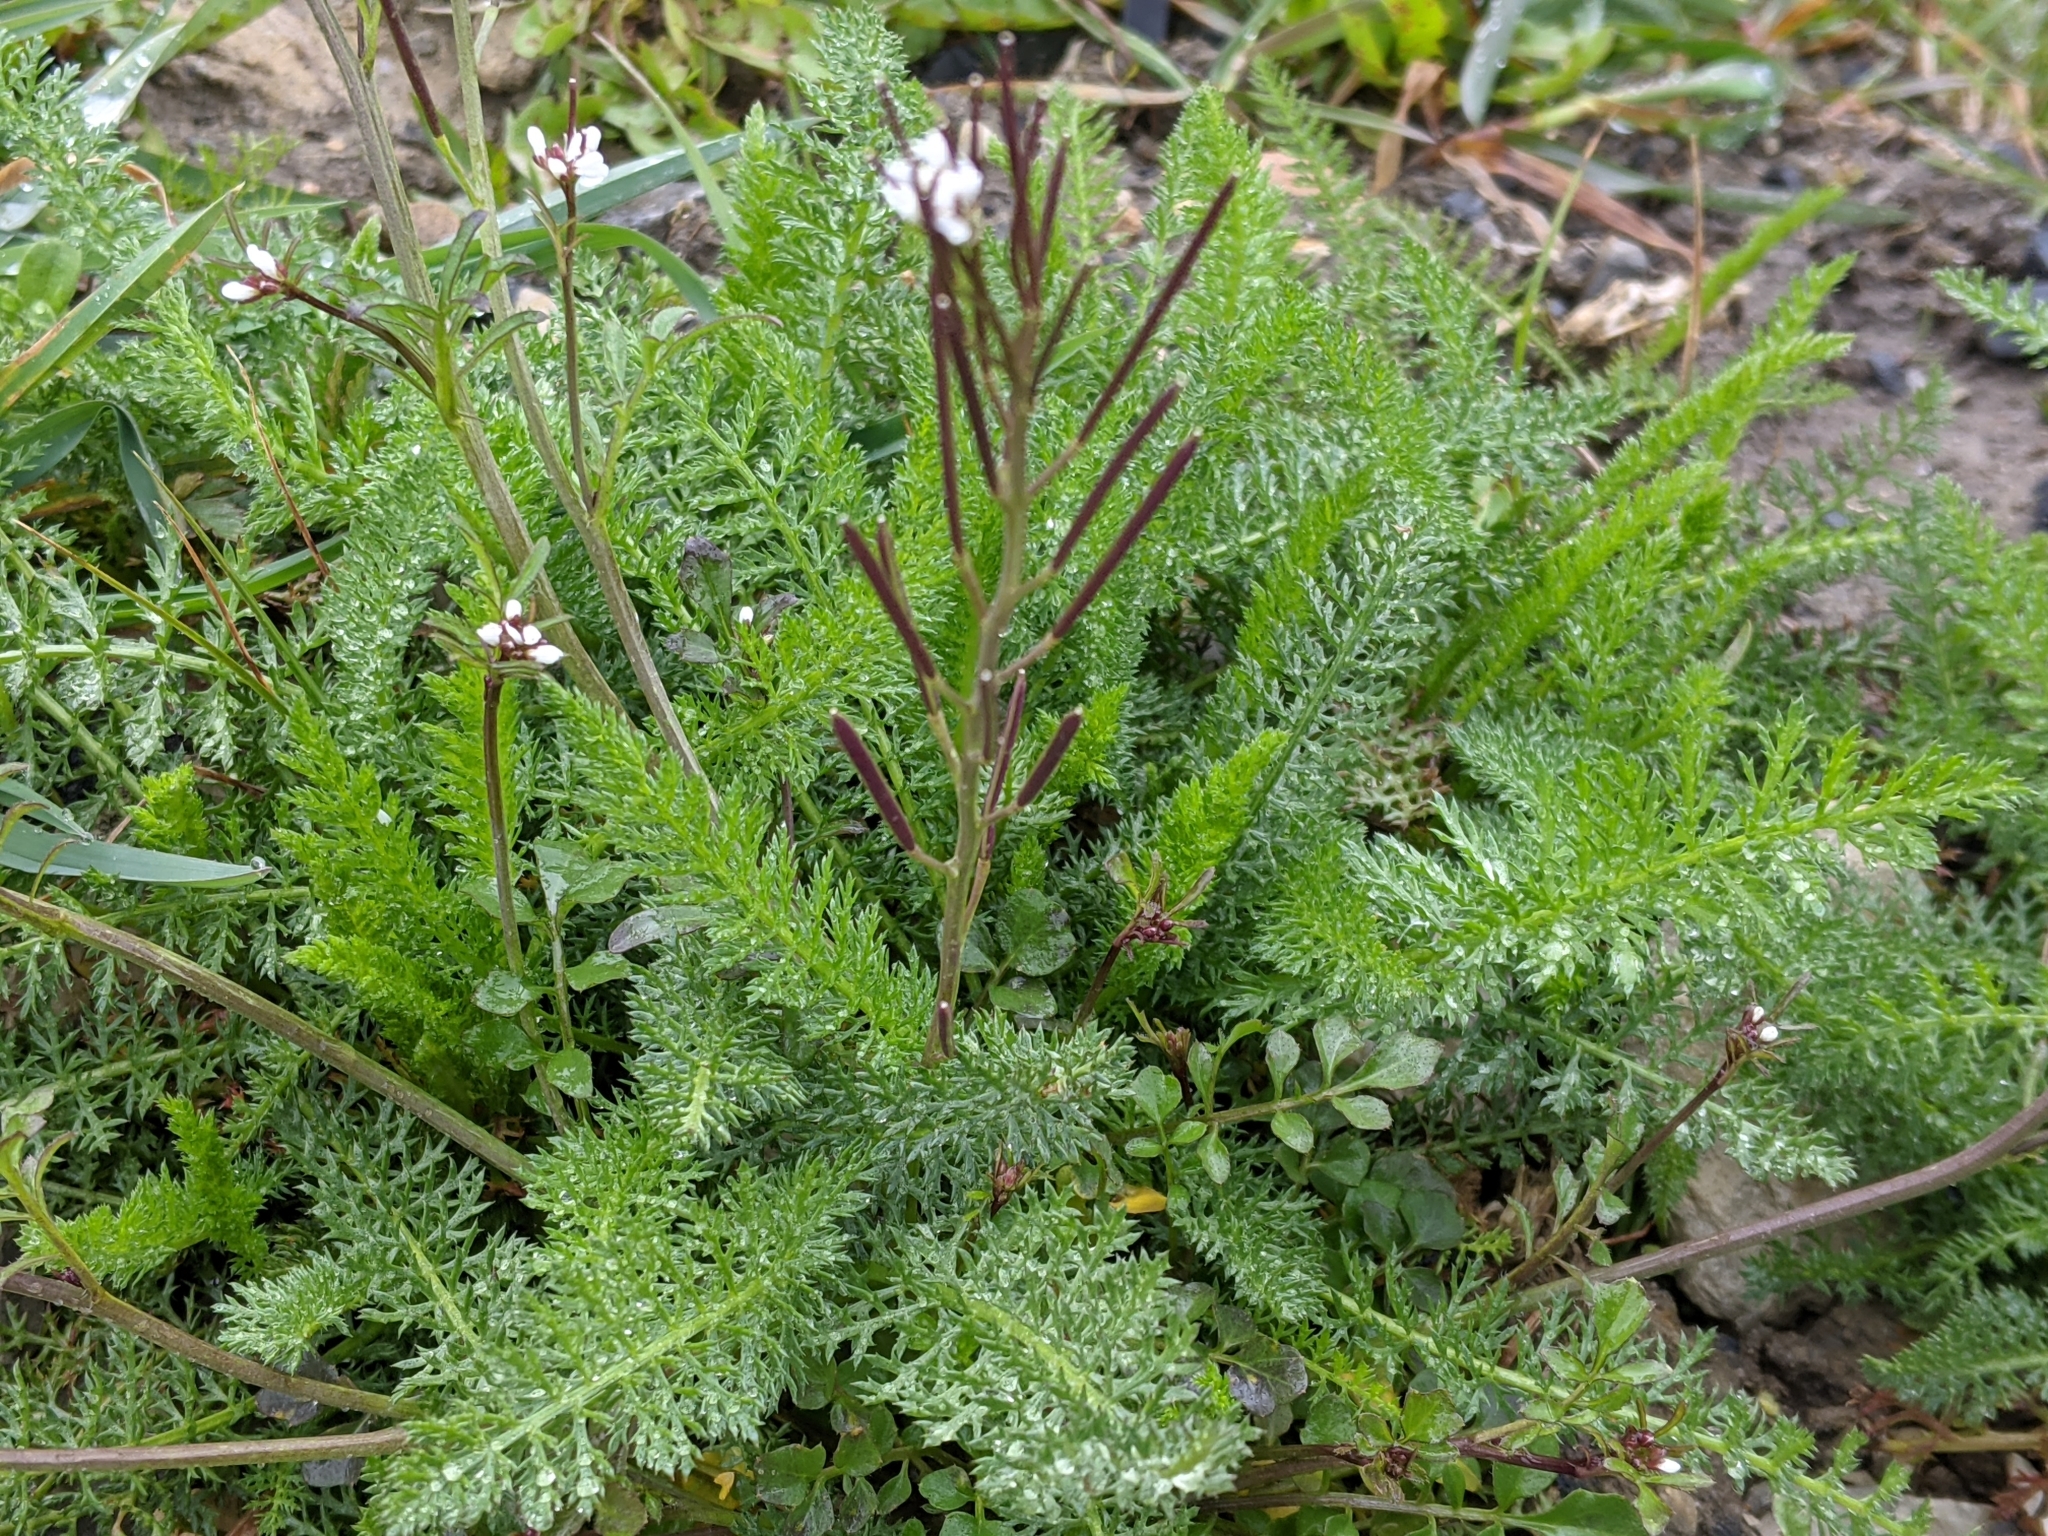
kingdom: Plantae
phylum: Tracheophyta
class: Magnoliopsida
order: Brassicales
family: Brassicaceae
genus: Cardamine
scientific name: Cardamine hirsuta
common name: Hairy bittercress
